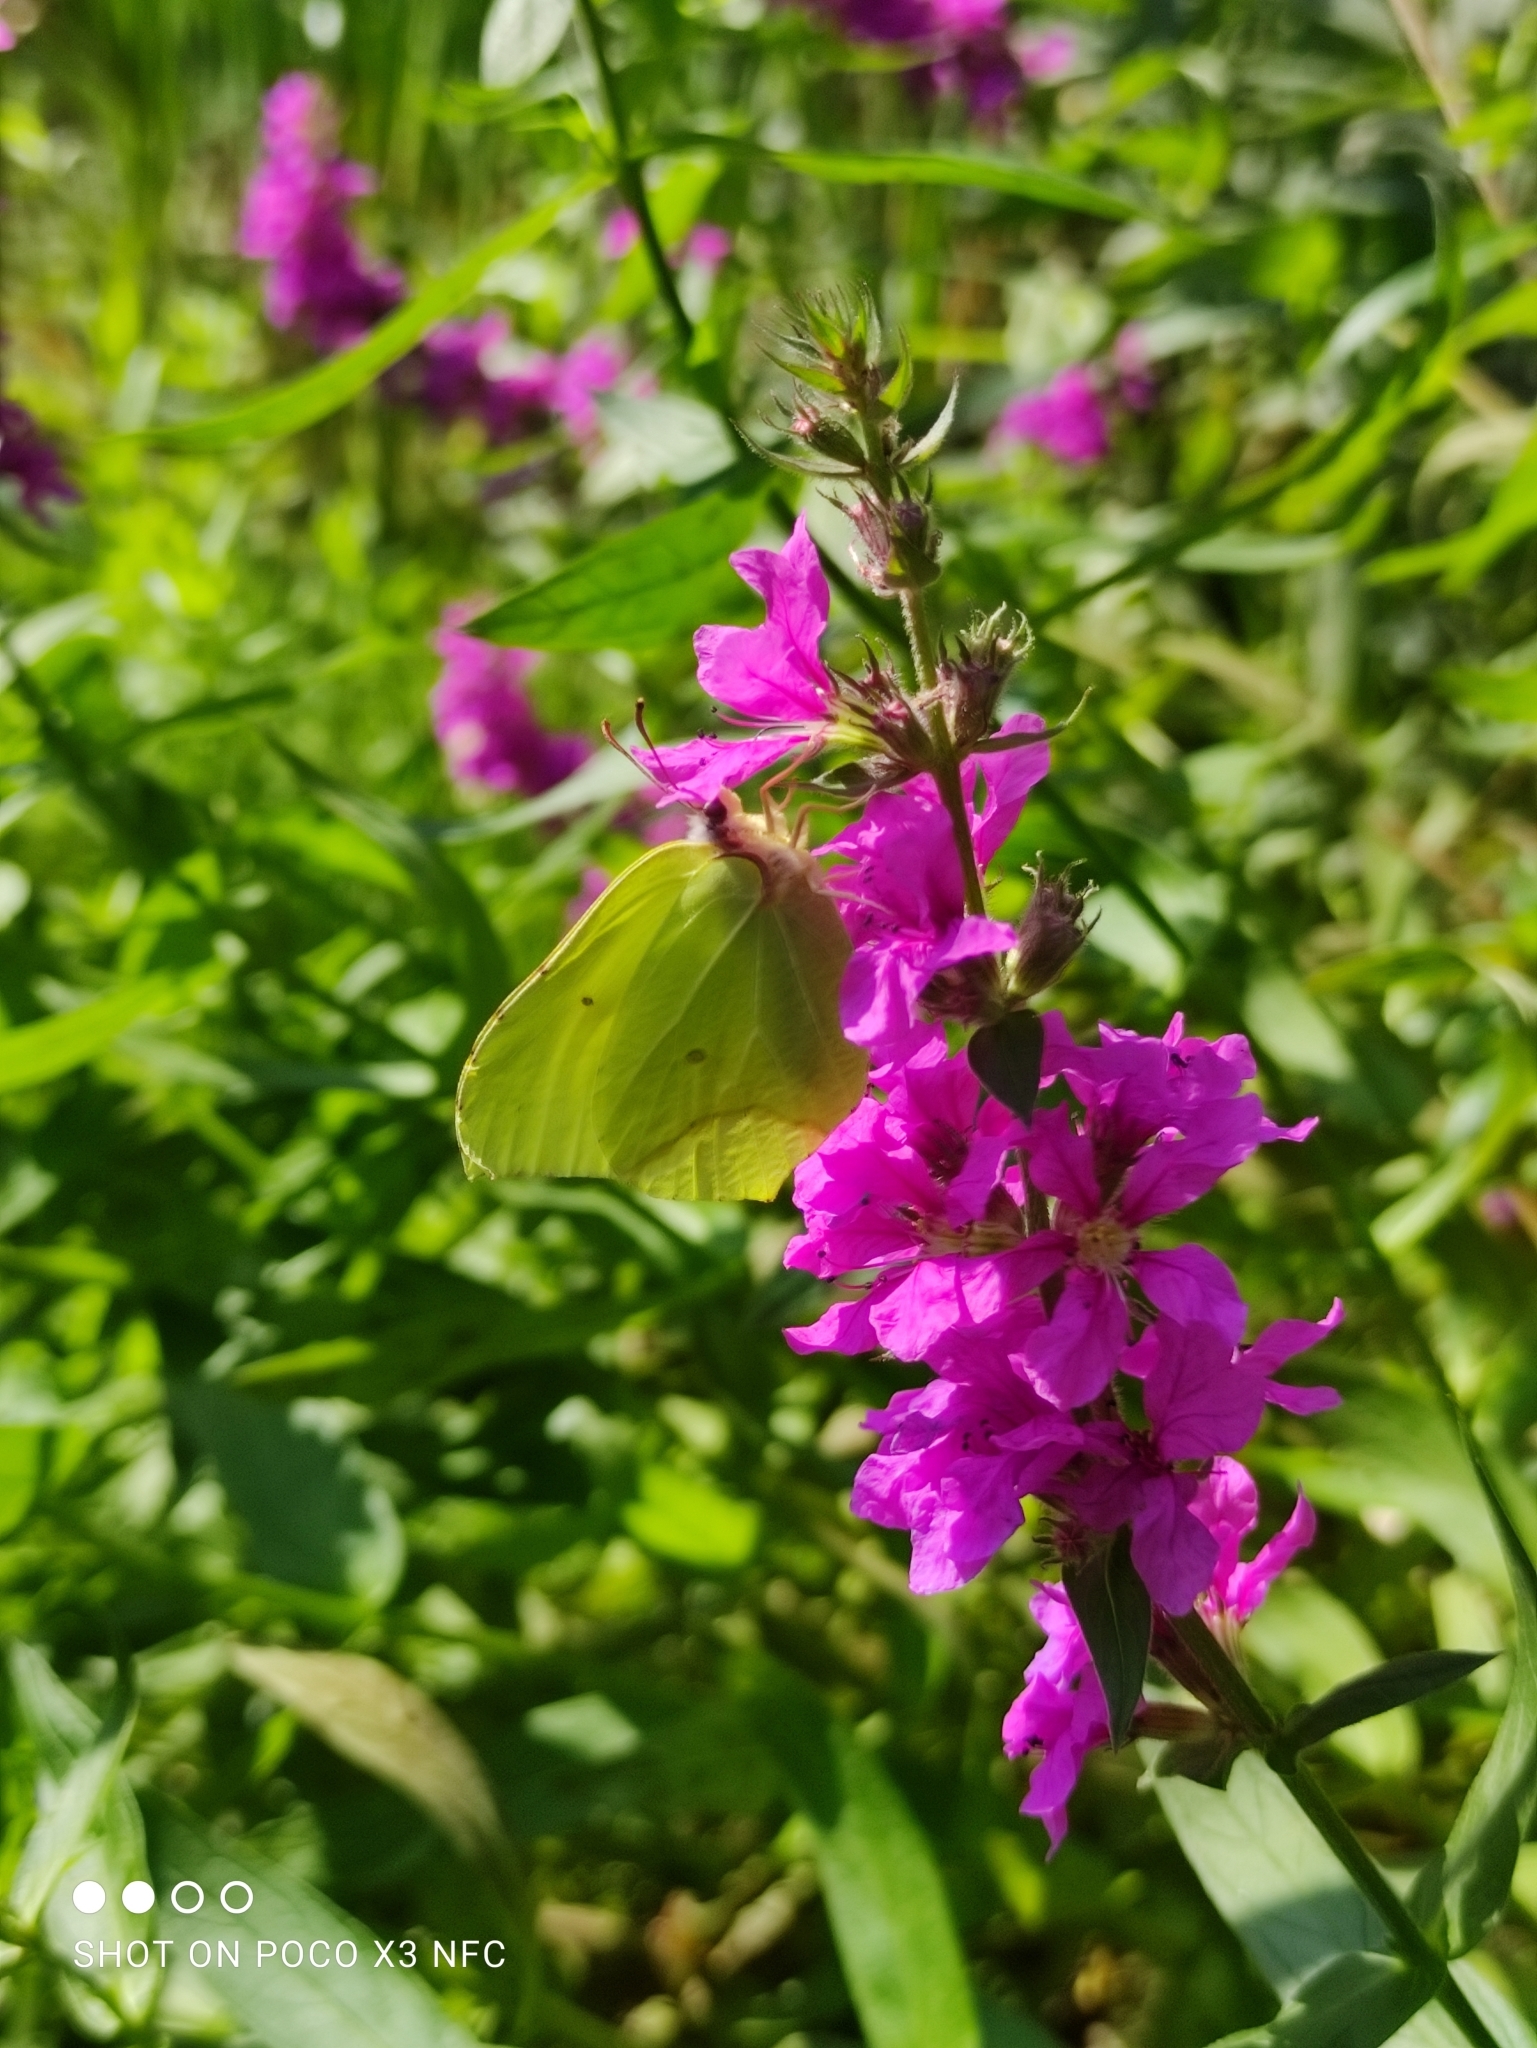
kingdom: Animalia
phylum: Arthropoda
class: Insecta
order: Lepidoptera
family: Pieridae
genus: Gonepteryx
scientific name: Gonepteryx rhamni
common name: Brimstone
